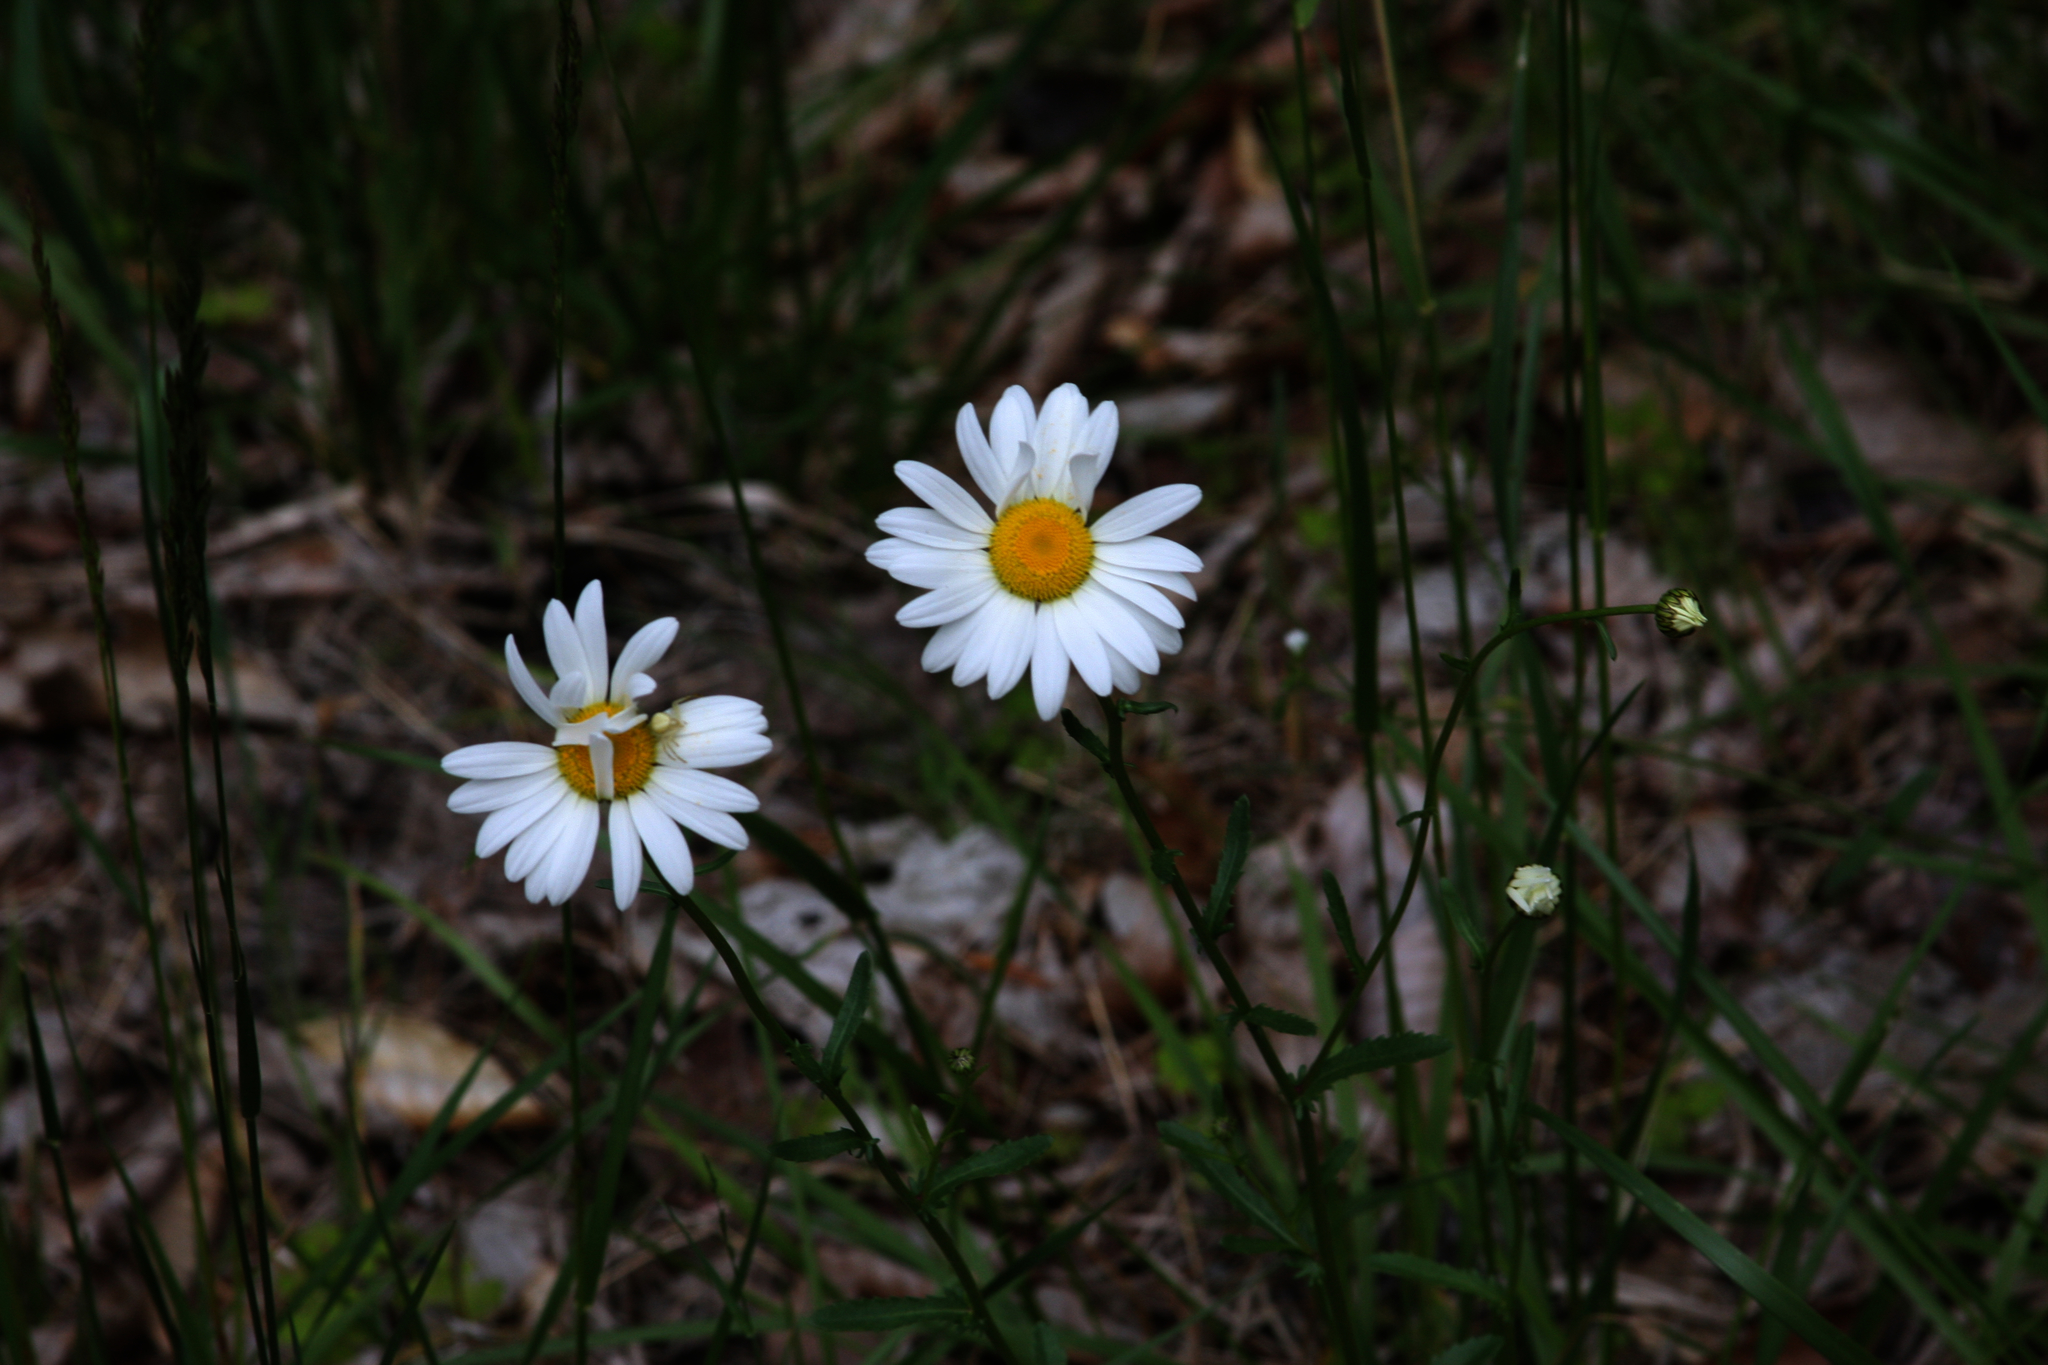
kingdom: Plantae
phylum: Tracheophyta
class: Magnoliopsida
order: Asterales
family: Asteraceae
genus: Leucanthemum
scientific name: Leucanthemum vulgare
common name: Oxeye daisy
